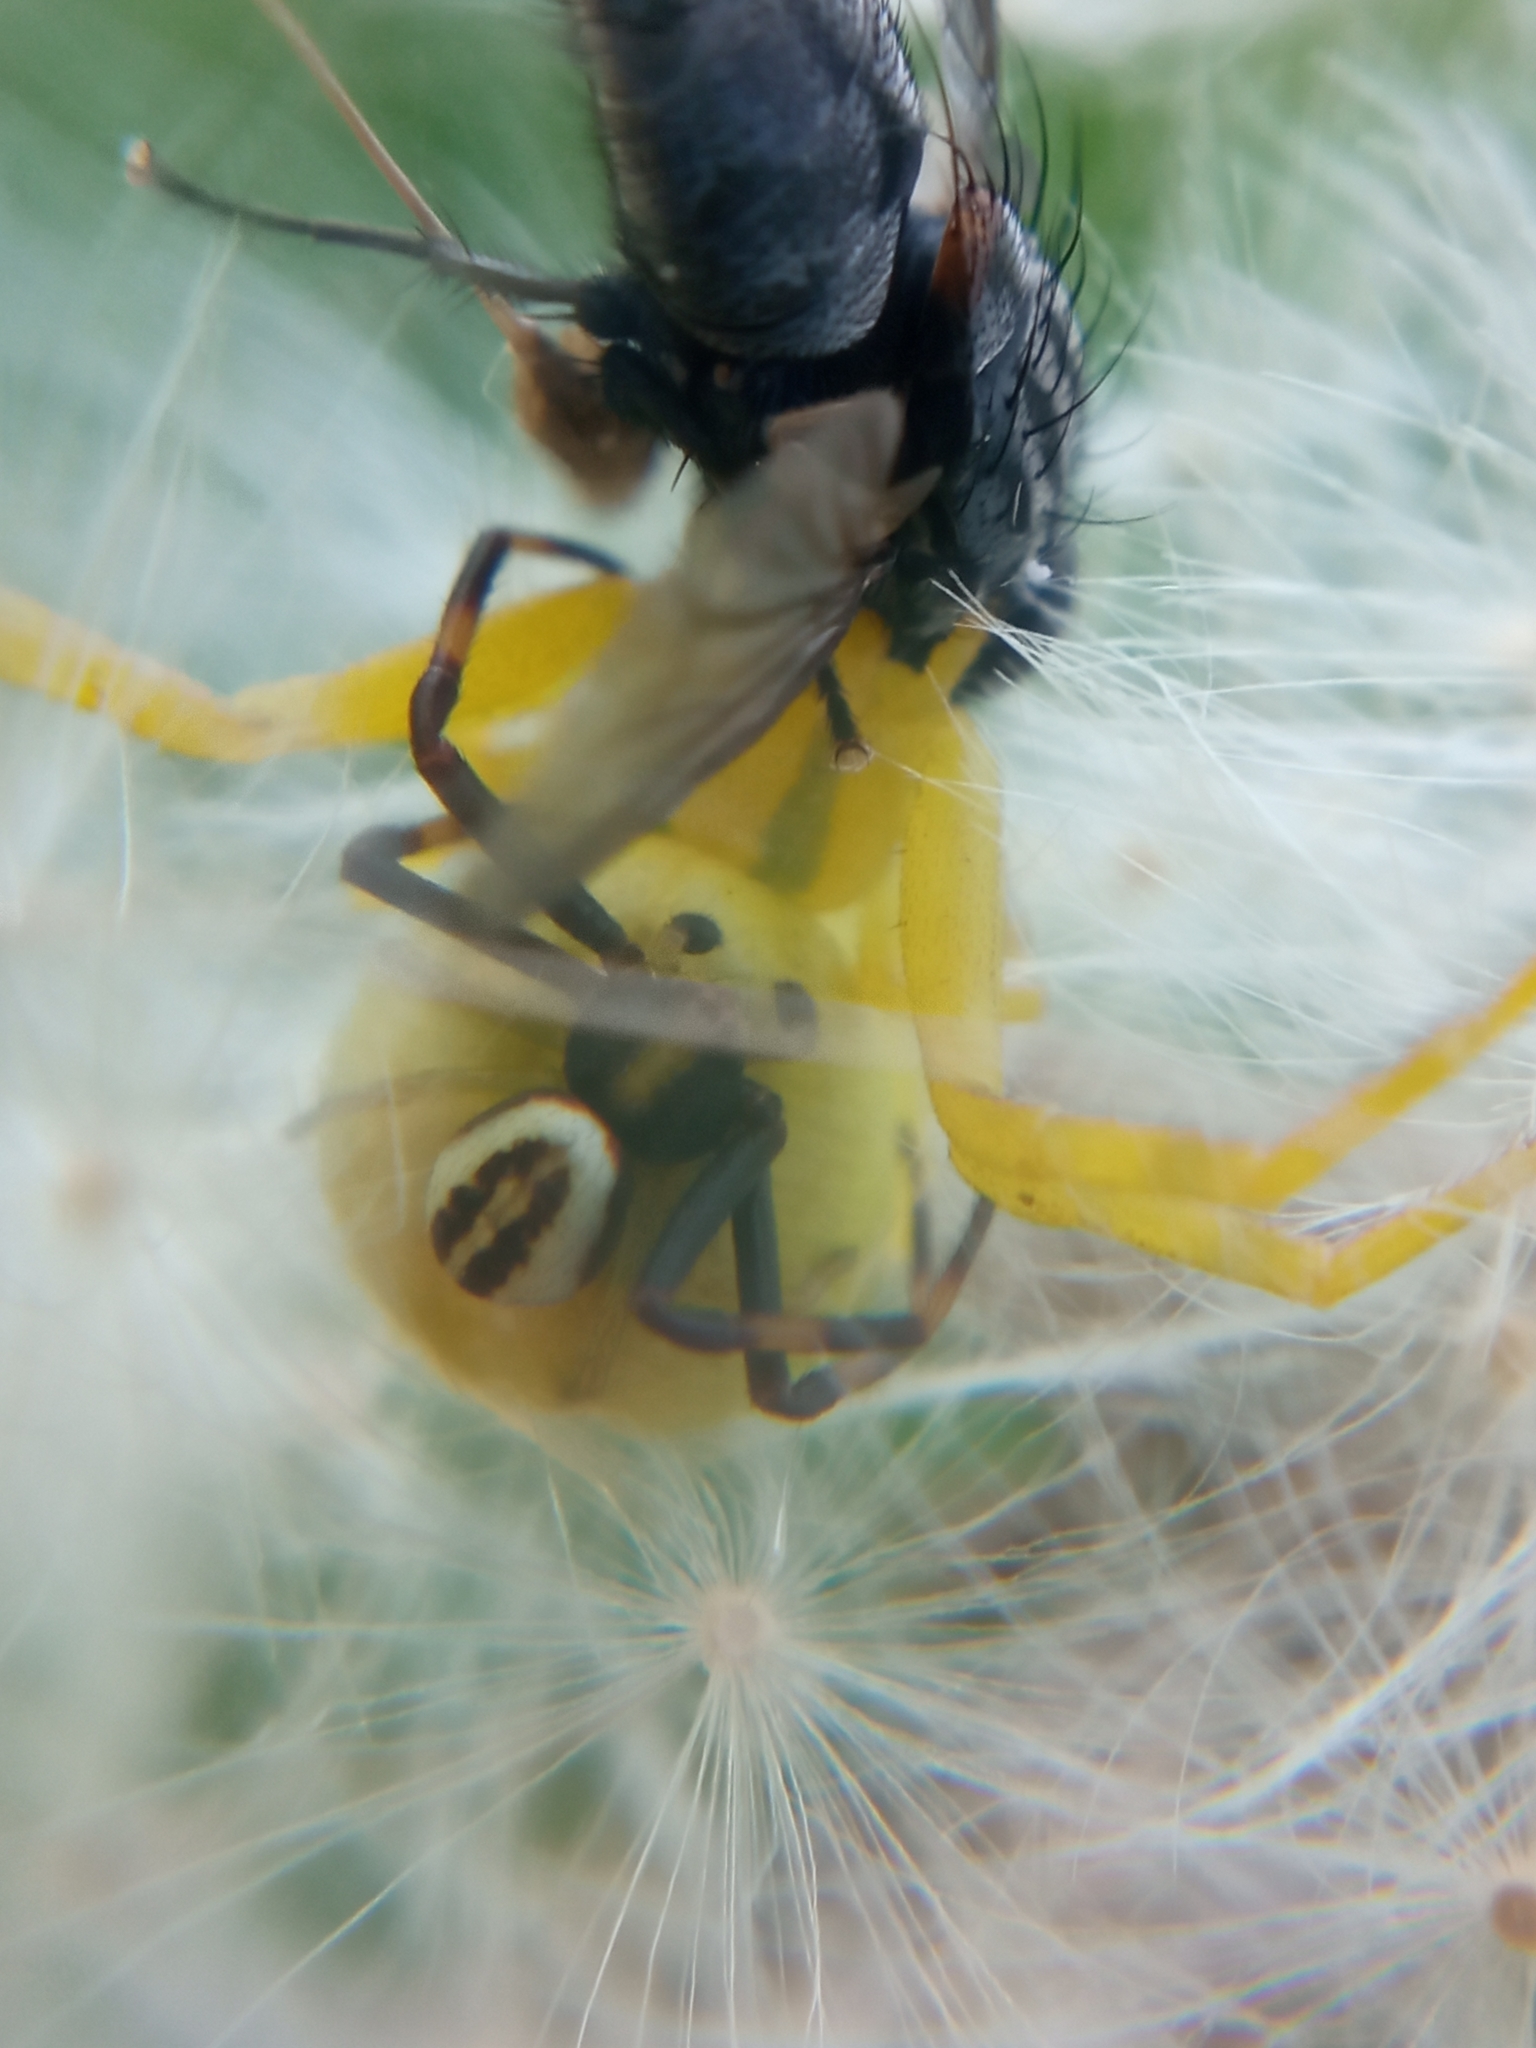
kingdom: Animalia
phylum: Arthropoda
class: Arachnida
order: Araneae
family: Thomisidae
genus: Misumena
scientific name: Misumena vatia
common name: Goldenrod crab spider
